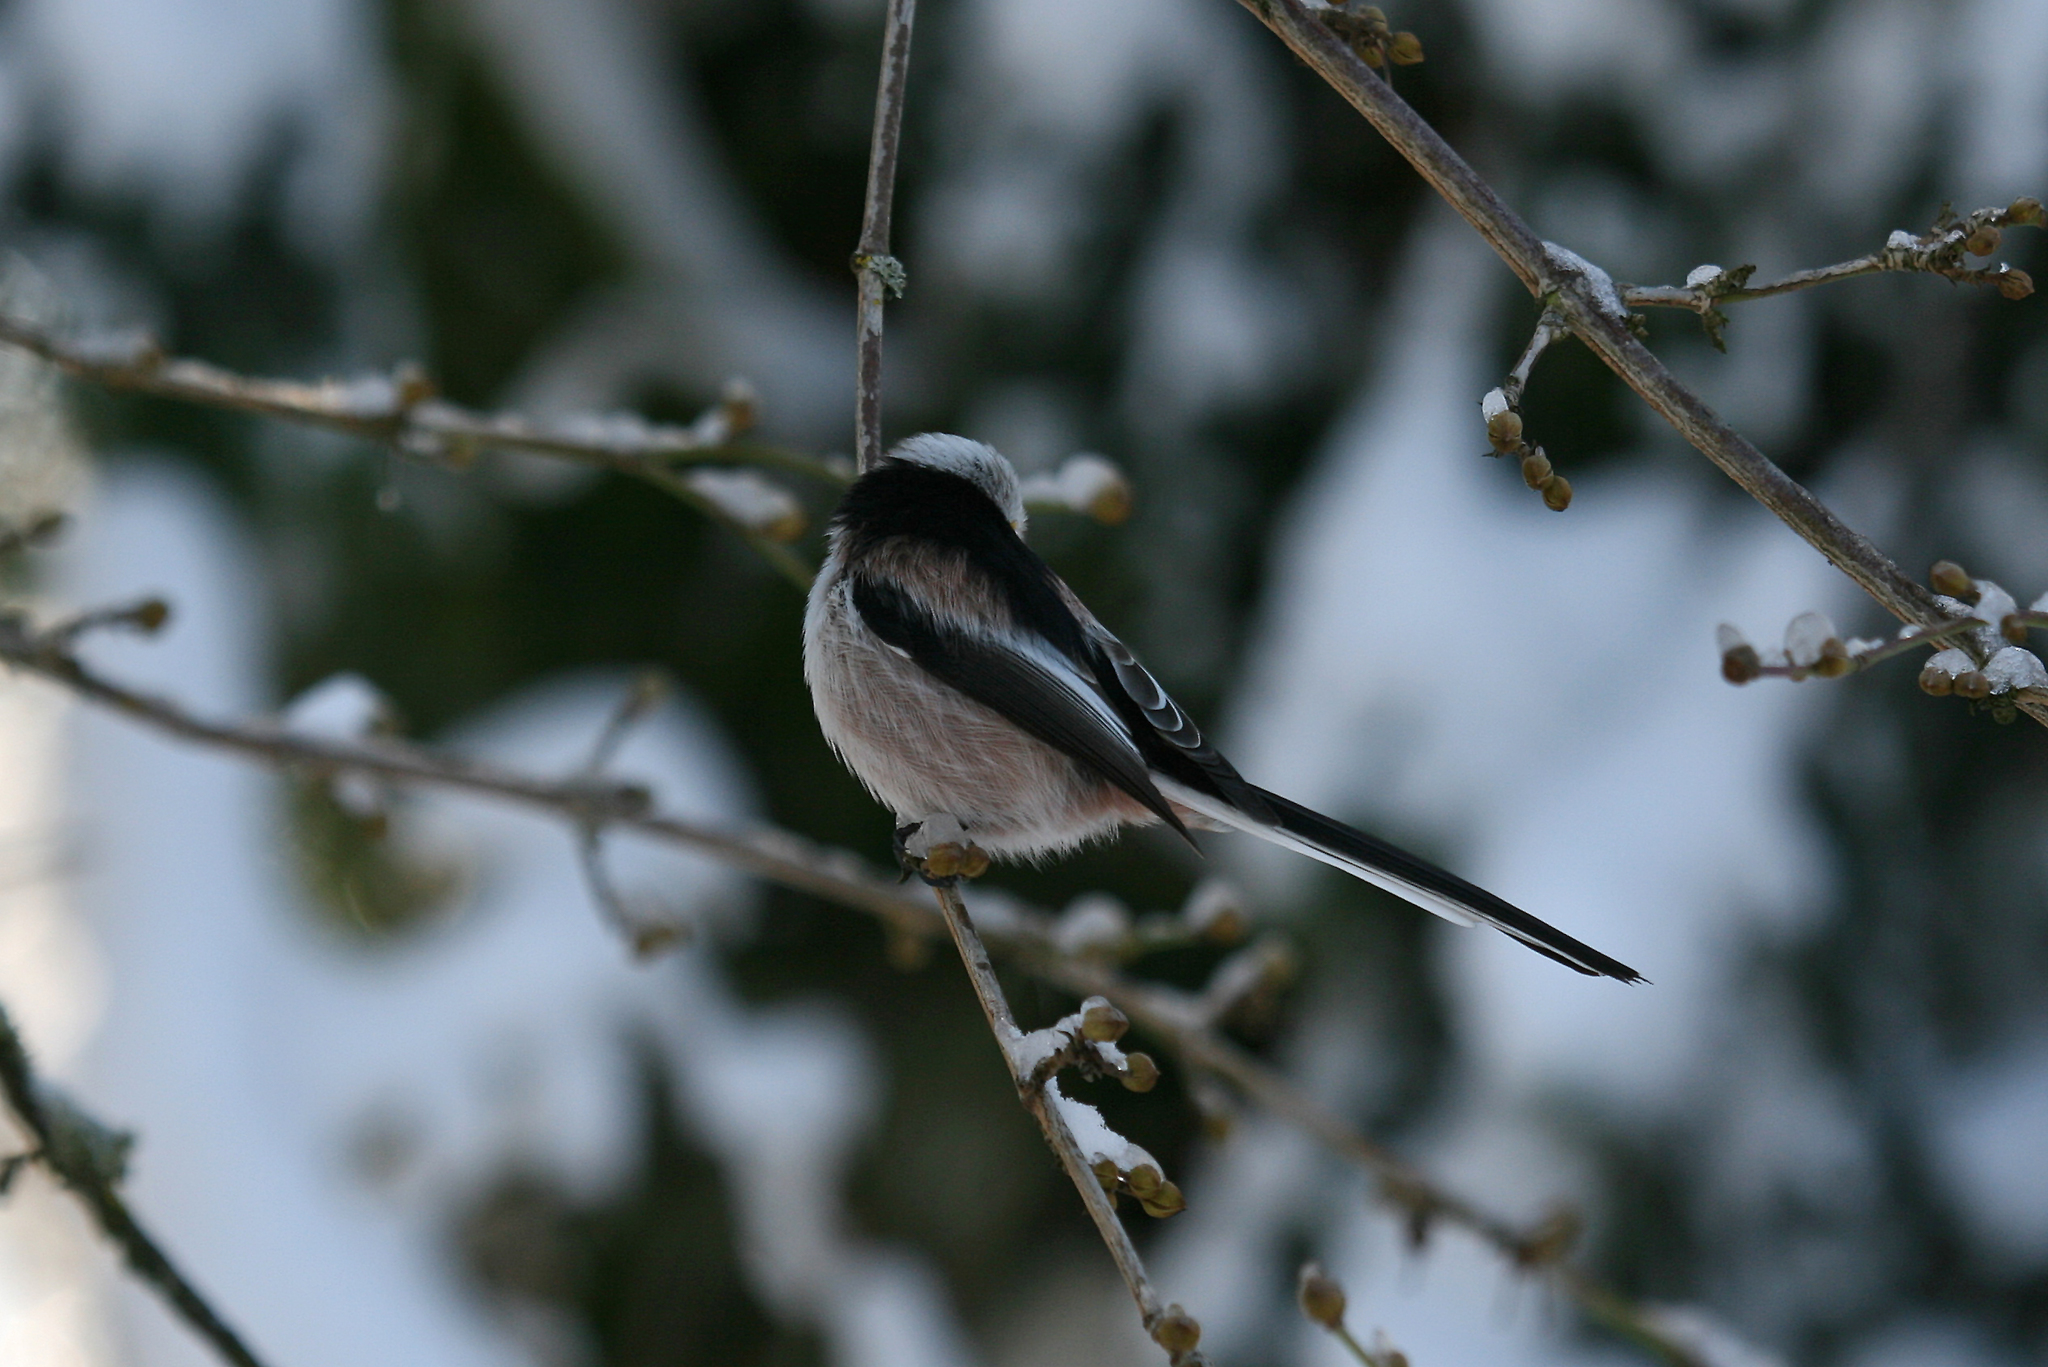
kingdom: Animalia
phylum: Chordata
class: Aves
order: Passeriformes
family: Aegithalidae
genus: Aegithalos
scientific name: Aegithalos caudatus
